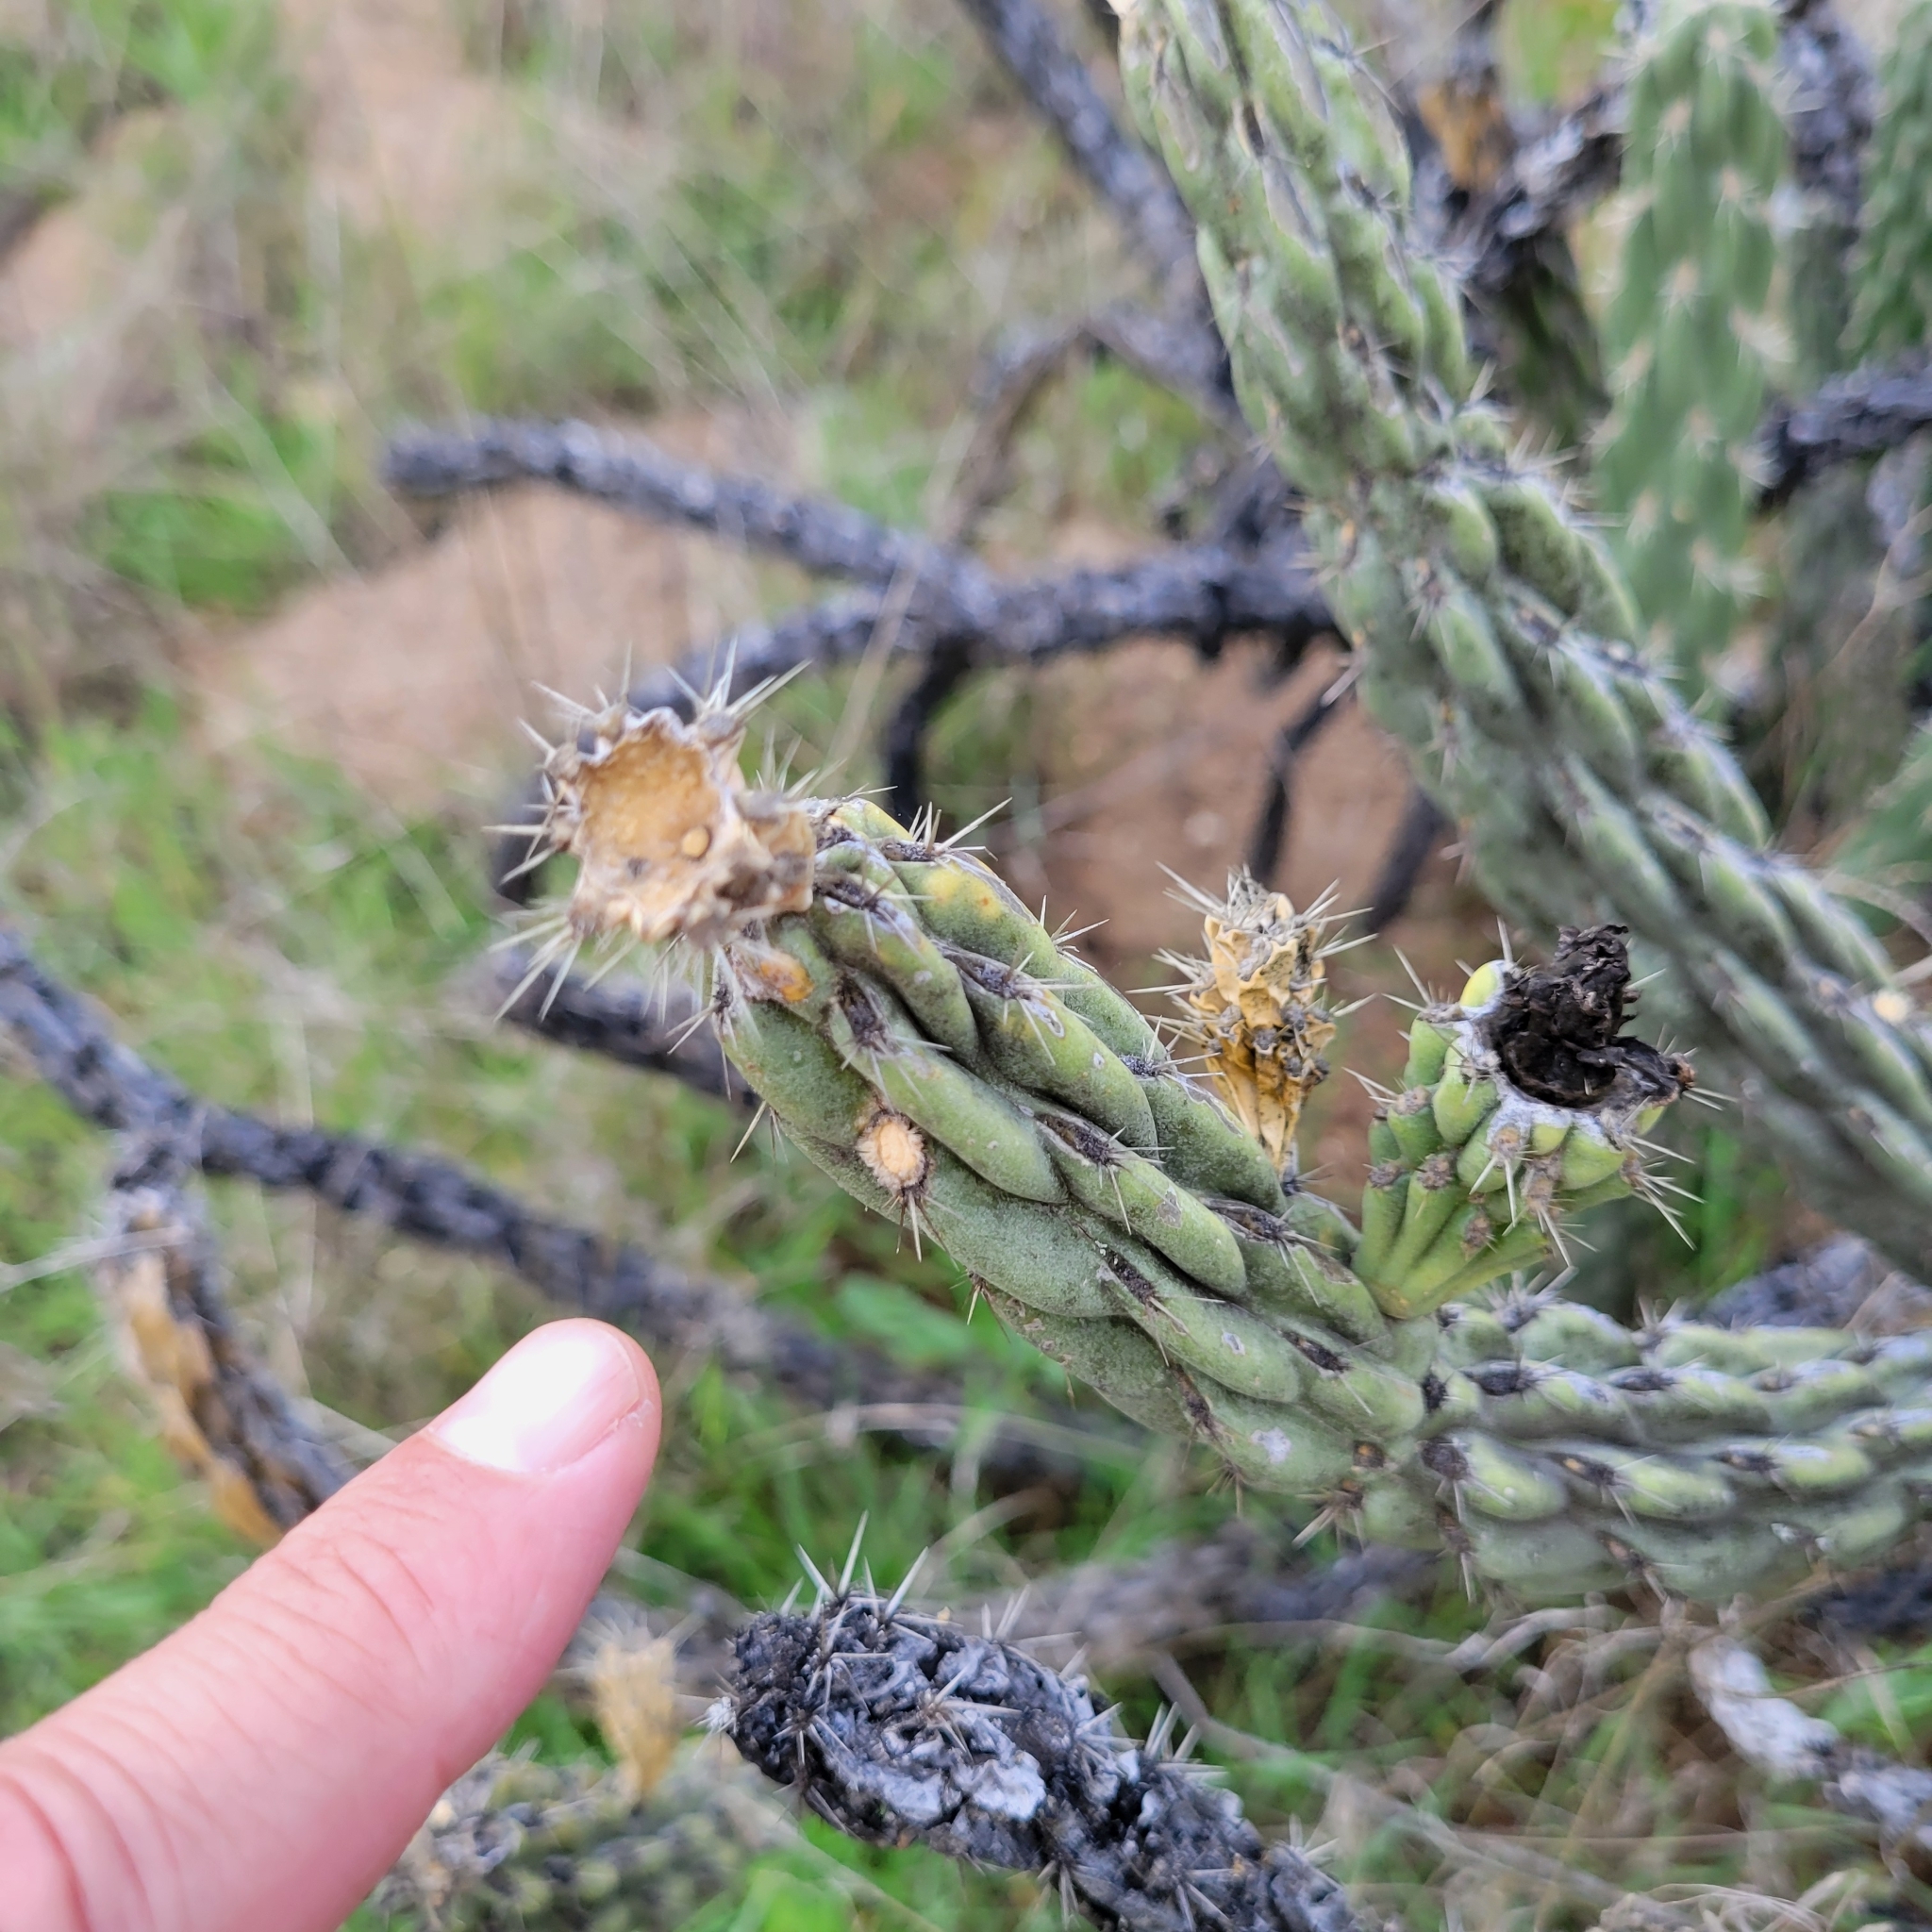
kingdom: Plantae
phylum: Tracheophyta
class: Magnoliopsida
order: Caryophyllales
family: Cactaceae
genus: Cylindropuntia
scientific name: Cylindropuntia bernardina
